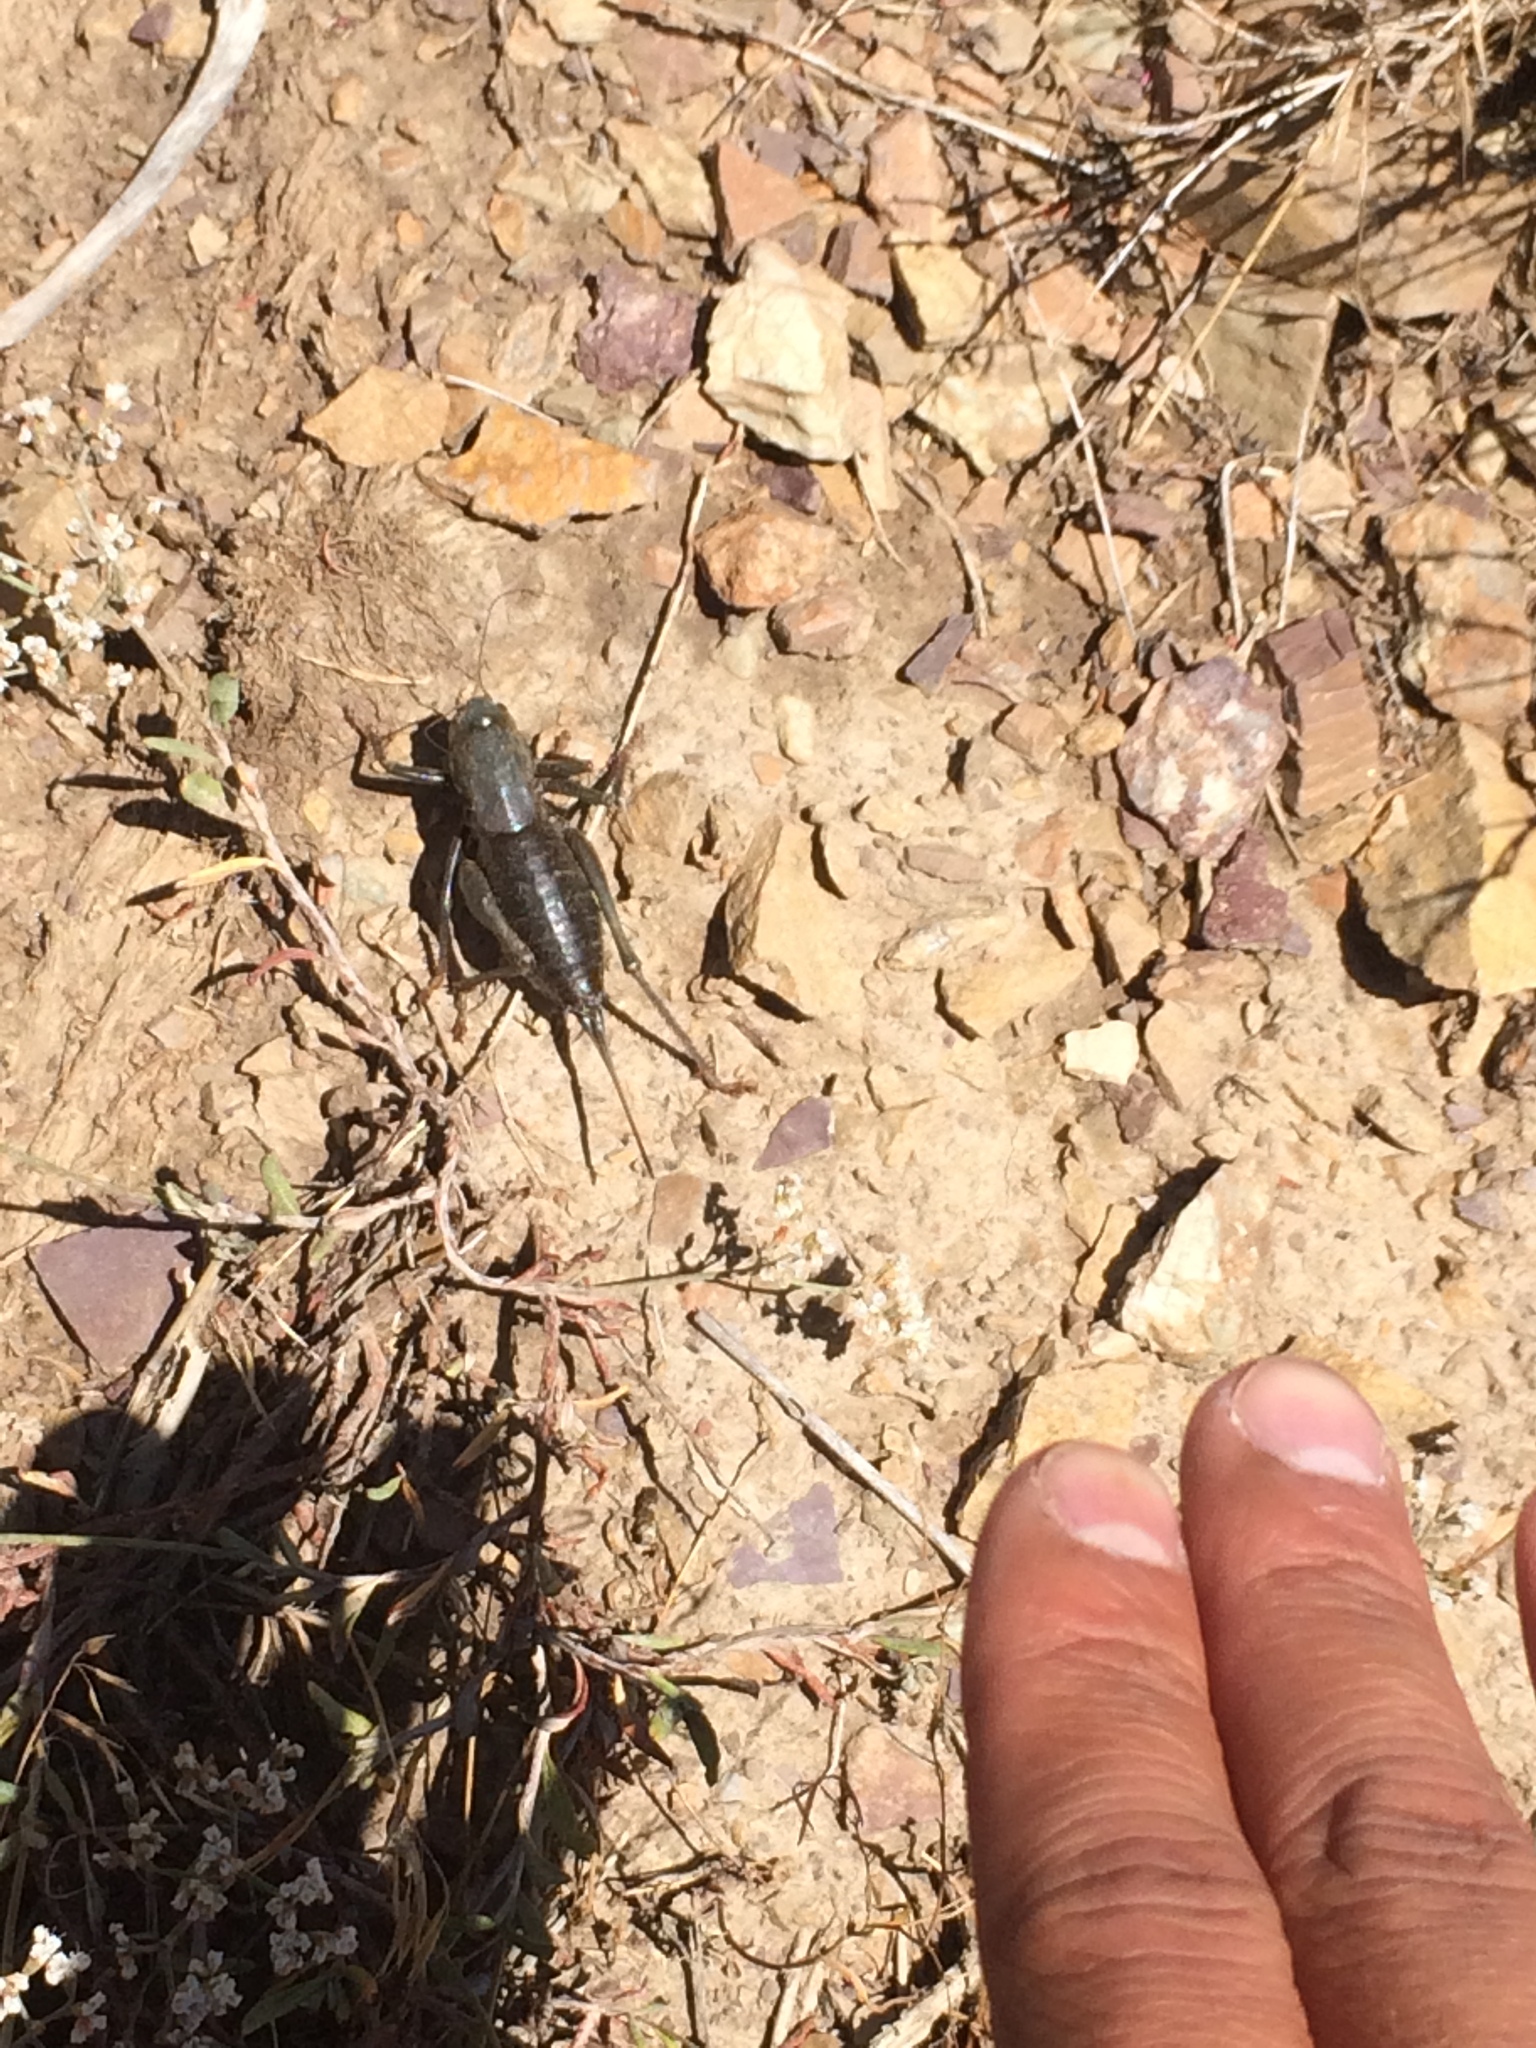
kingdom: Animalia
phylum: Arthropoda
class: Insecta
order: Orthoptera
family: Tettigoniidae
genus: Anabrus
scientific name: Anabrus simplex
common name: Mormon cricket
